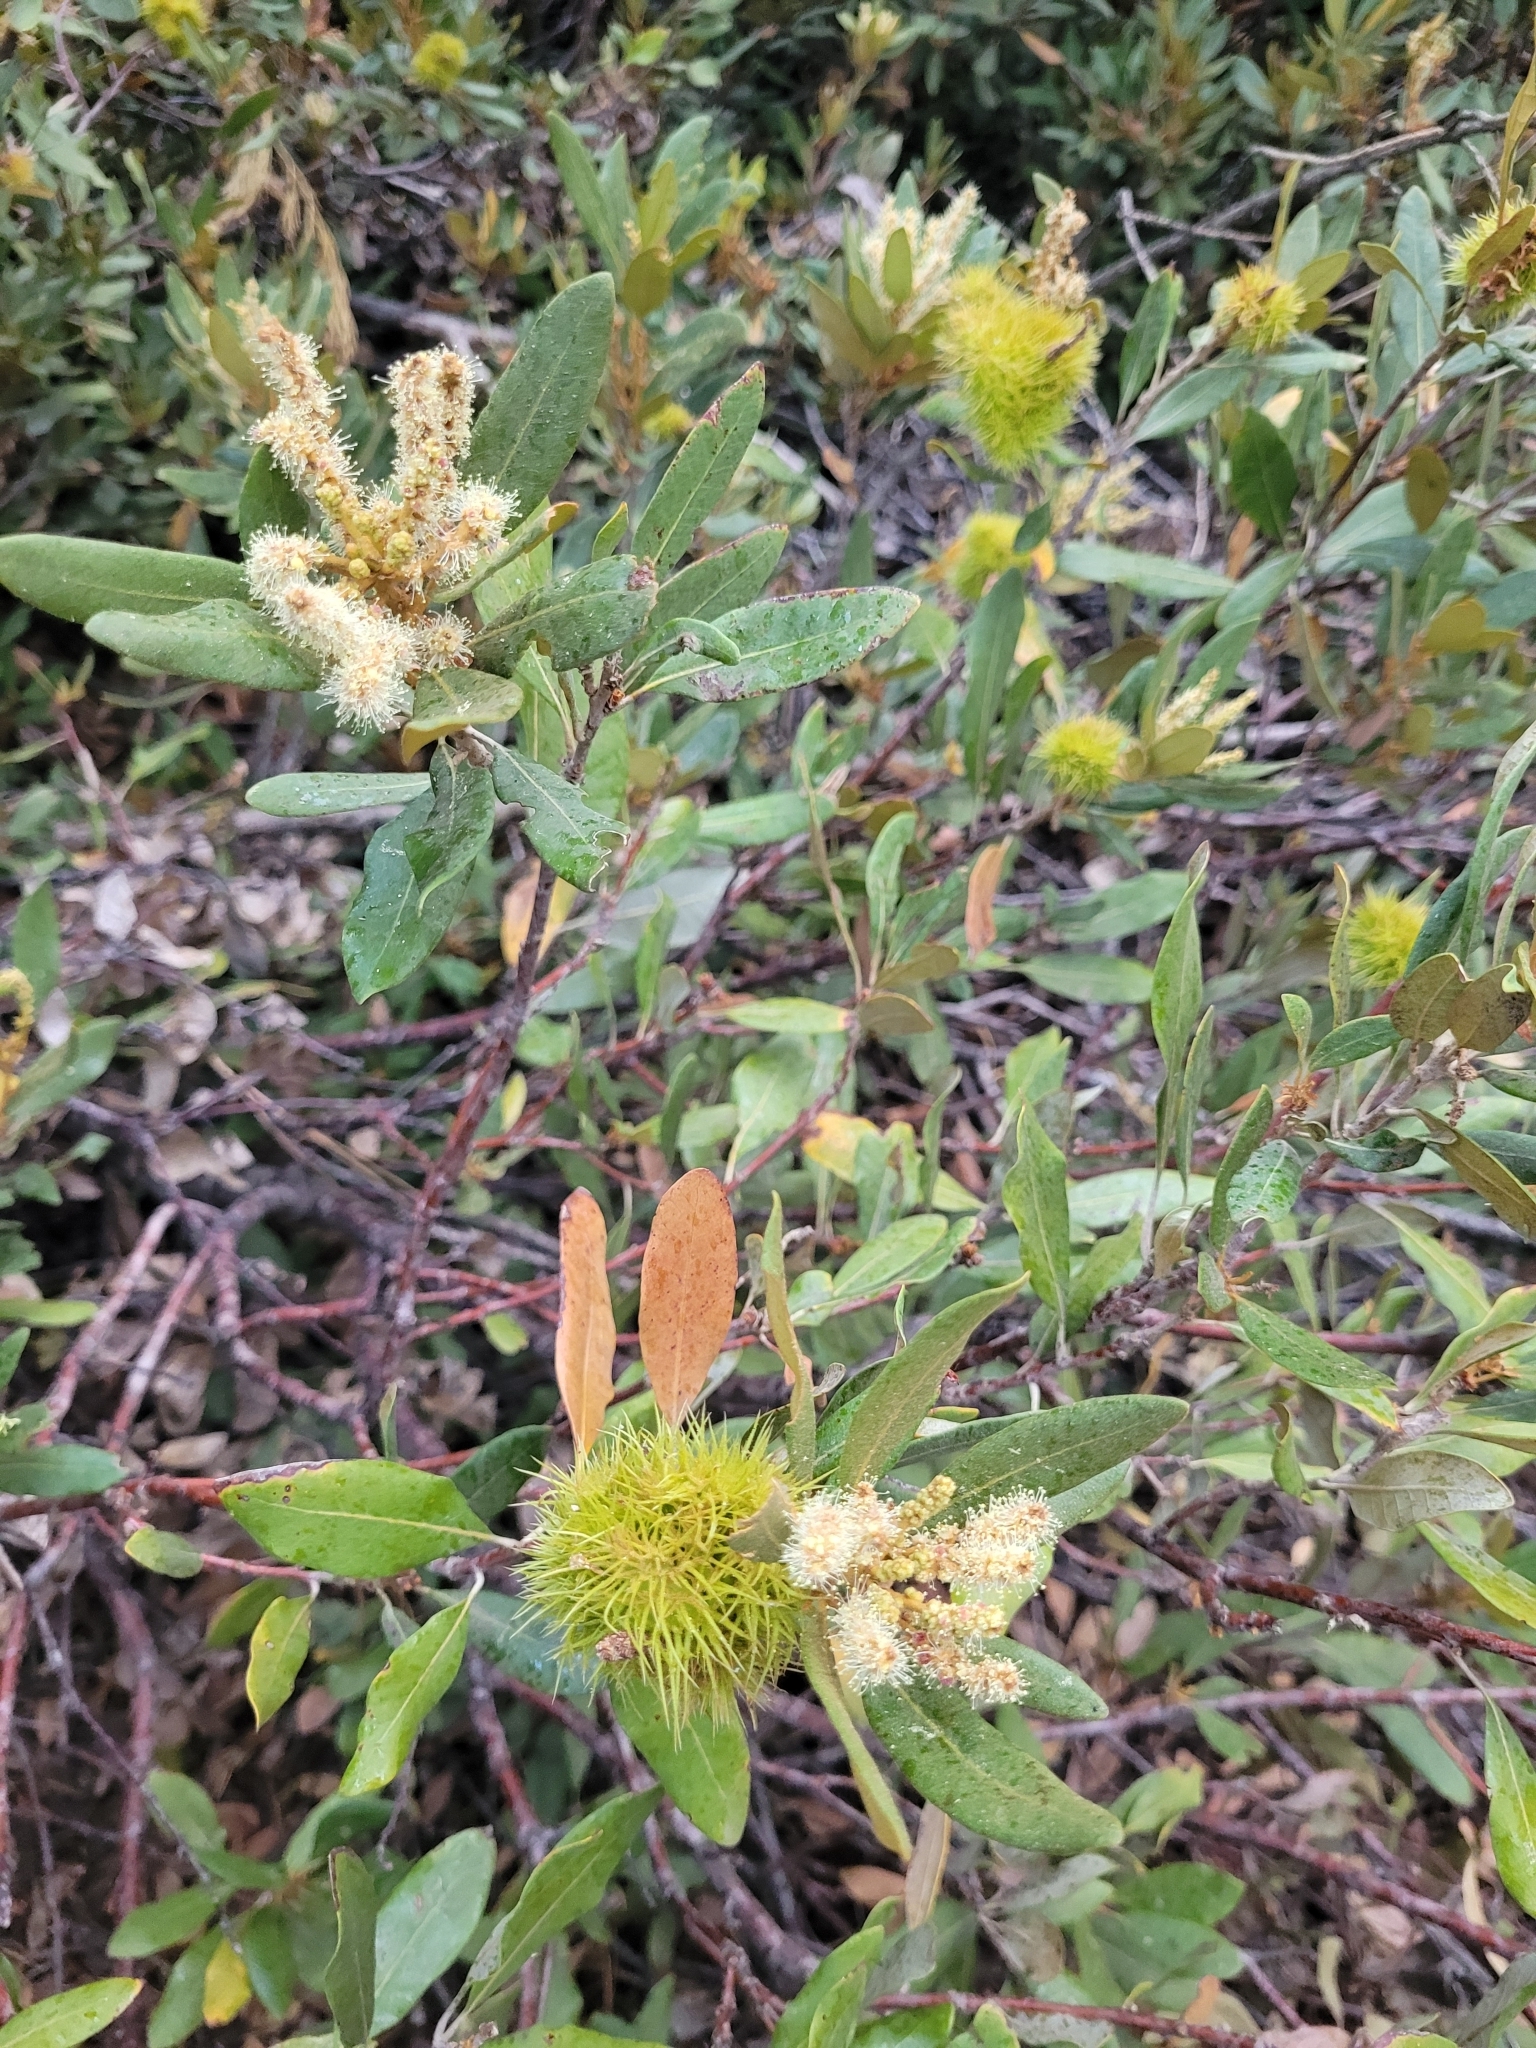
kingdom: Plantae
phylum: Tracheophyta
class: Magnoliopsida
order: Fagales
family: Fagaceae
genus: Chrysolepis
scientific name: Chrysolepis sempervirens
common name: Bush chinquapin
